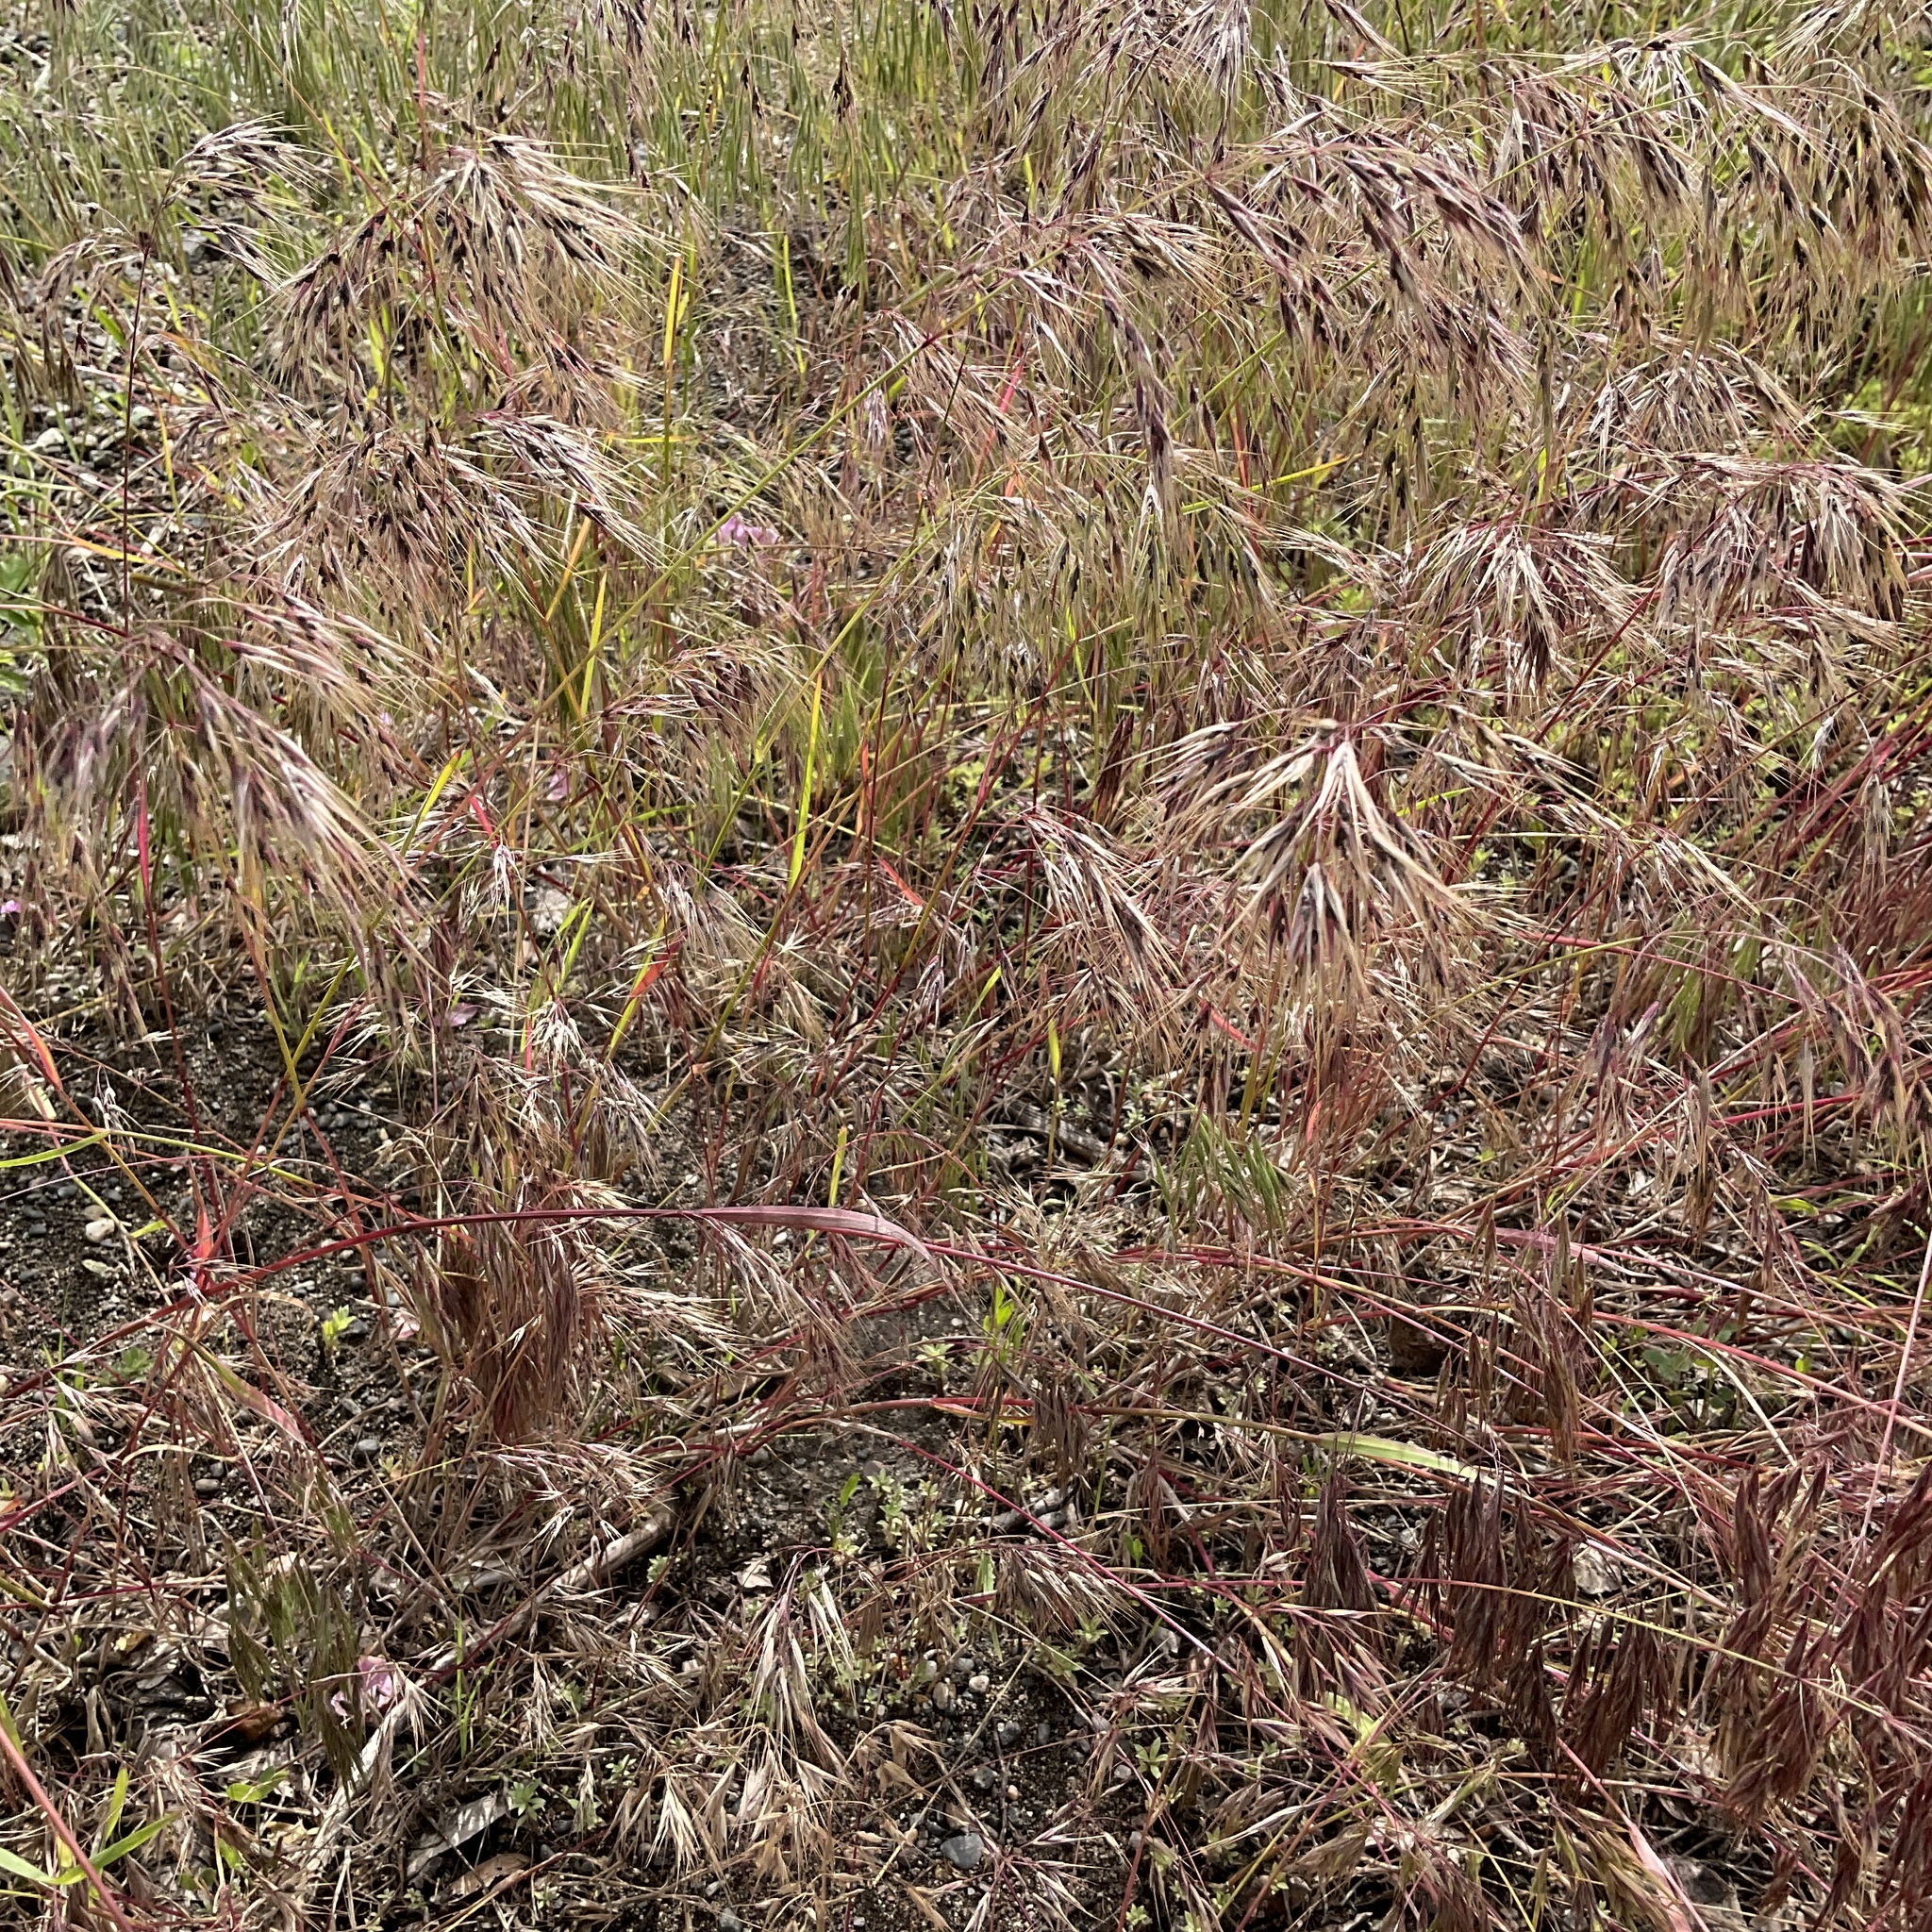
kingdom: Plantae
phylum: Tracheophyta
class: Liliopsida
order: Poales
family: Poaceae
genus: Bromus
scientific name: Bromus tectorum
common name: Cheatgrass
